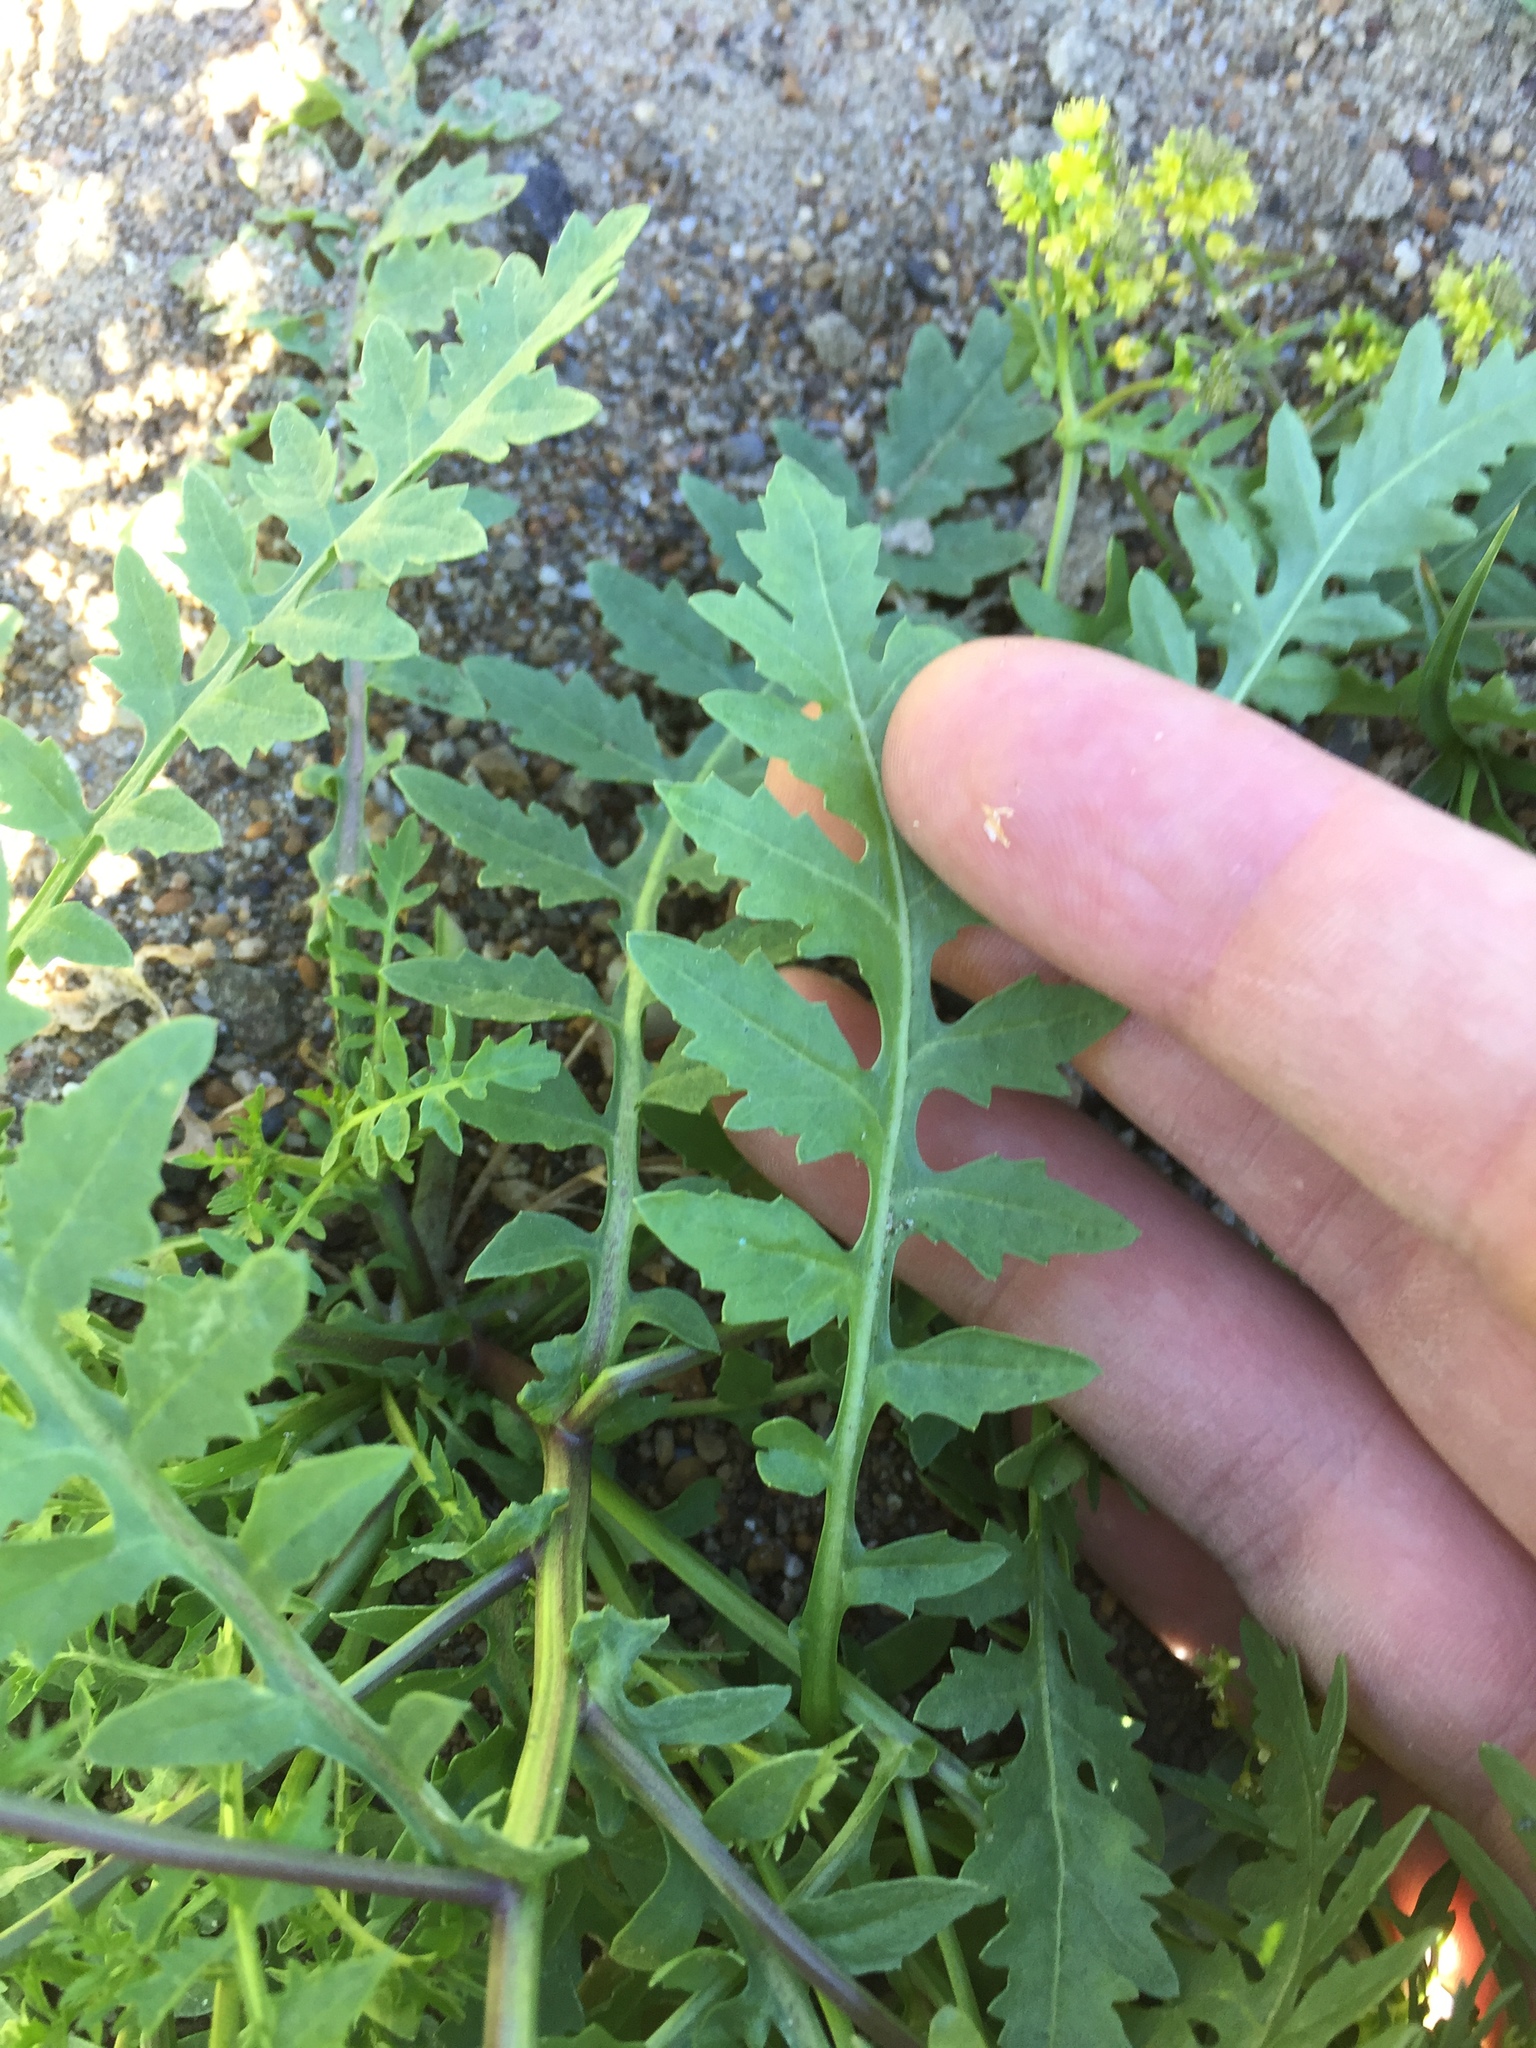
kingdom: Plantae
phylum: Tracheophyta
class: Magnoliopsida
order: Brassicales
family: Brassicaceae
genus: Rorippa
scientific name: Rorippa palustris
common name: Marsh yellow-cress
